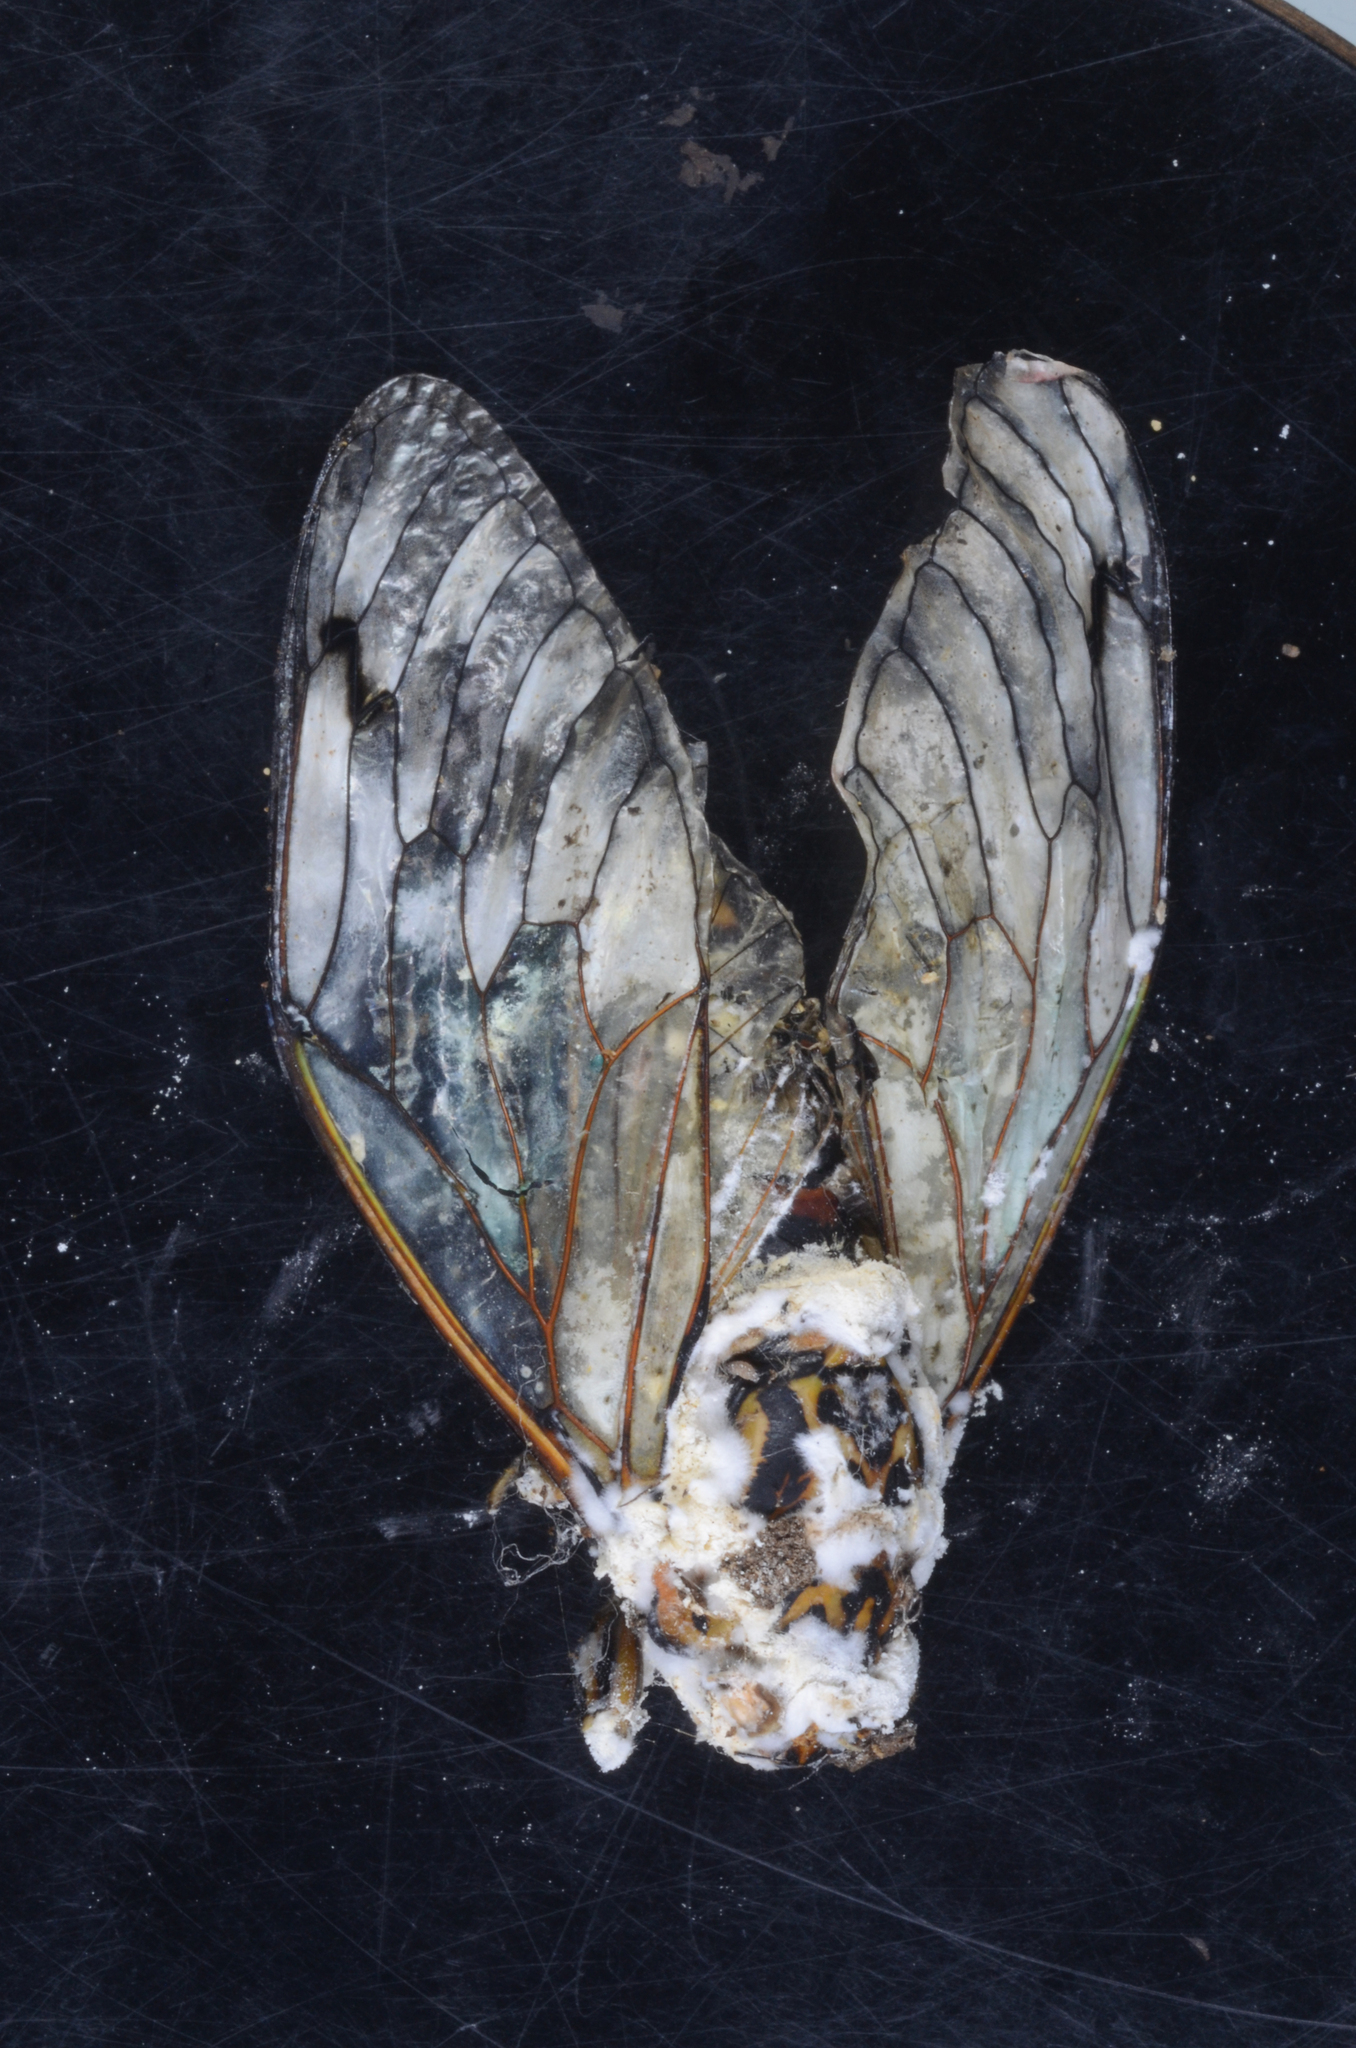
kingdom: Fungi
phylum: Ascomycota
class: Sordariomycetes
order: Hypocreales
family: Cordycipitaceae
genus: Beauveria
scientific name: Beauveria pseudobassiana
